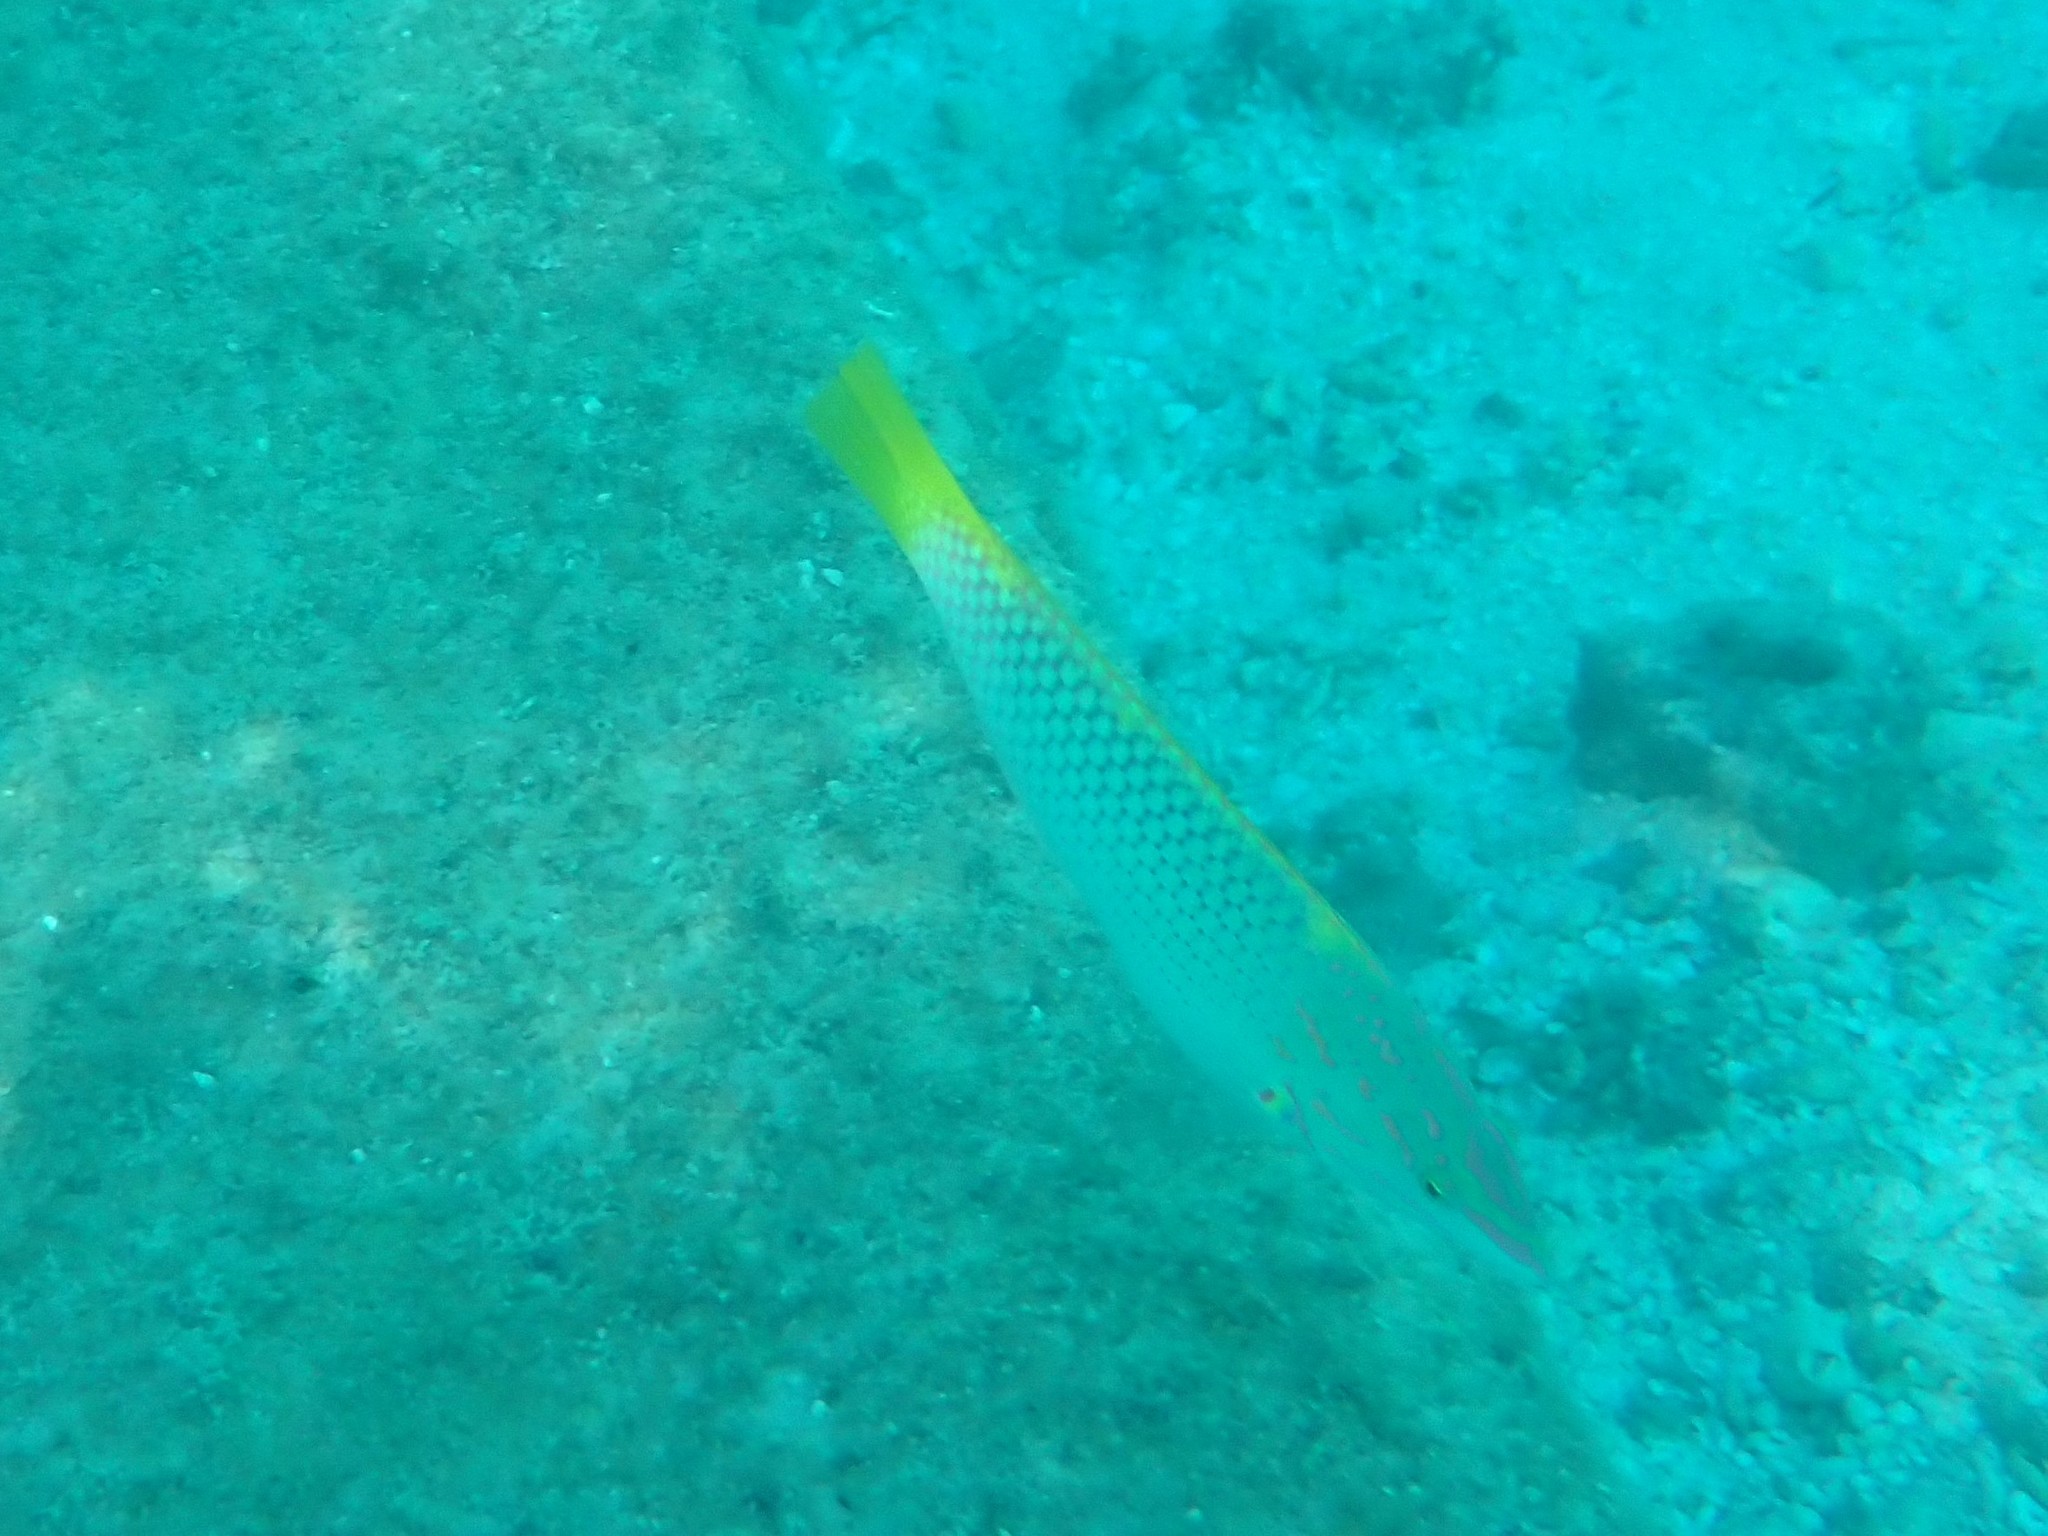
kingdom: Animalia
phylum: Chordata
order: Perciformes
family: Labridae
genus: Halichoeres
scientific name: Halichoeres hortulanus
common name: Checkerboard wrasse
